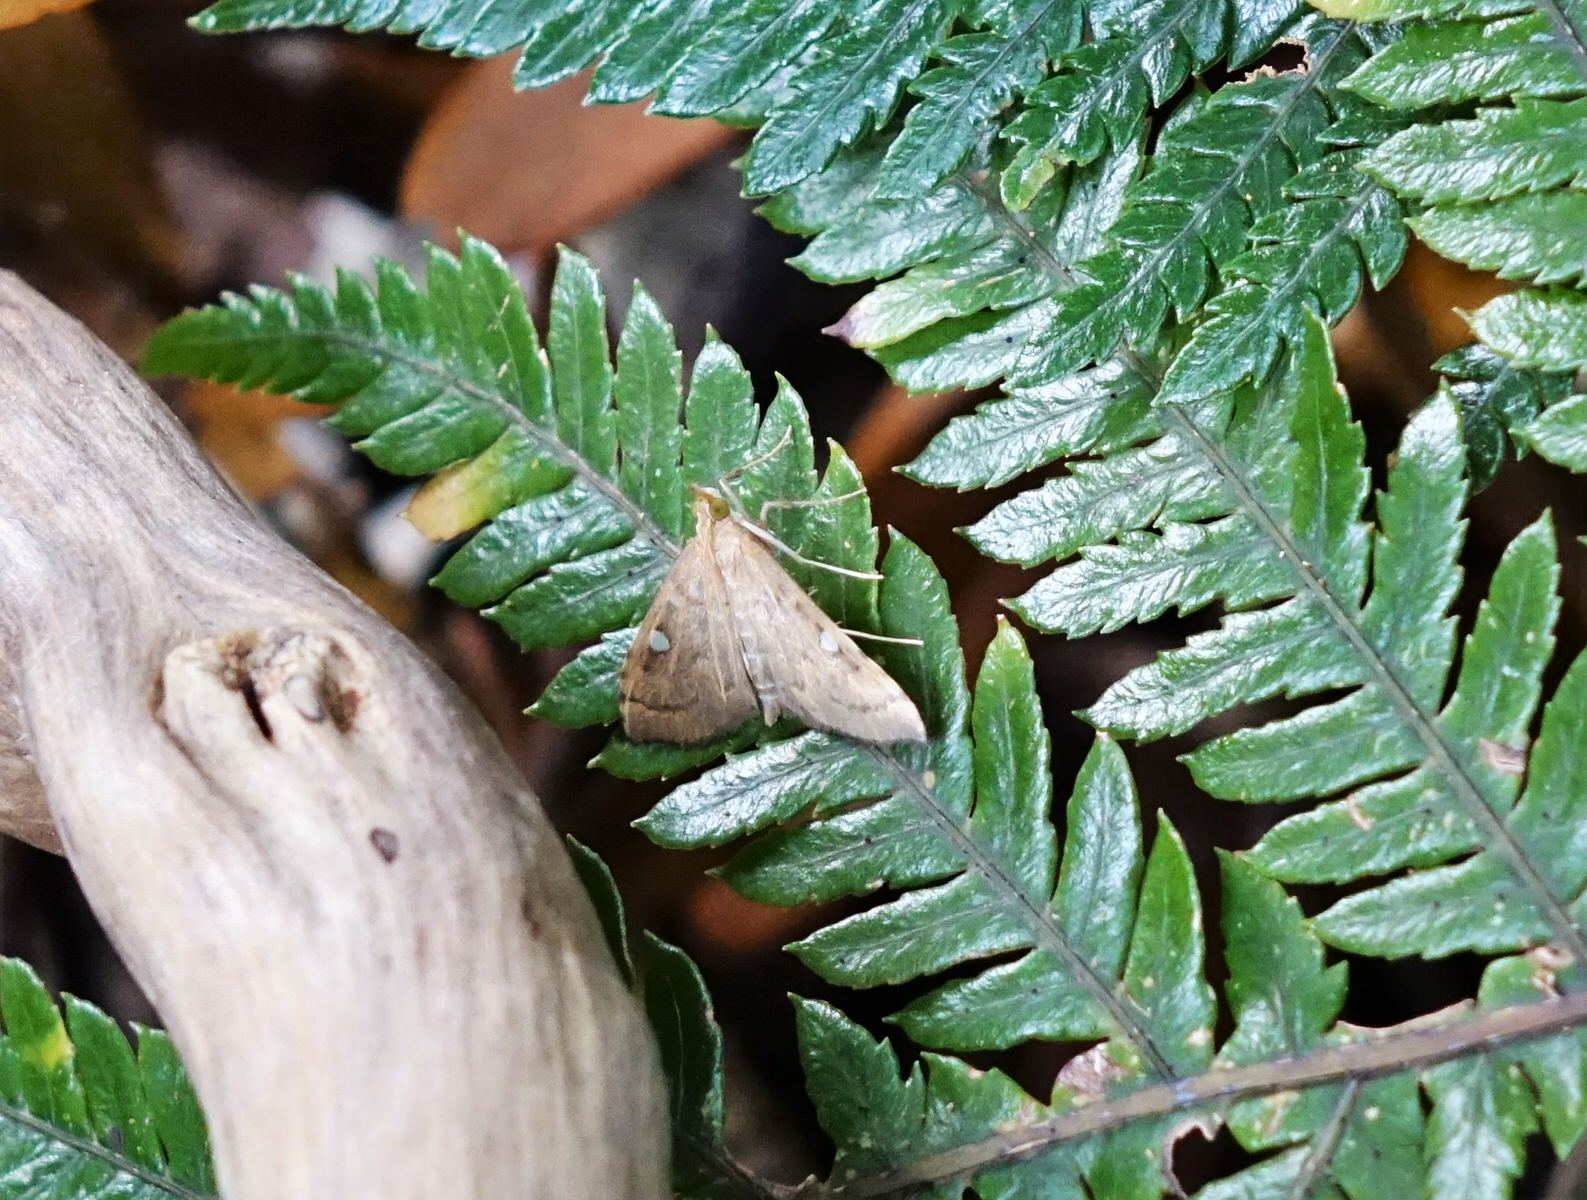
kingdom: Animalia
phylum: Arthropoda
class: Insecta
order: Lepidoptera
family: Crambidae
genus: Udea
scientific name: Udea Mnesictena marmarina
